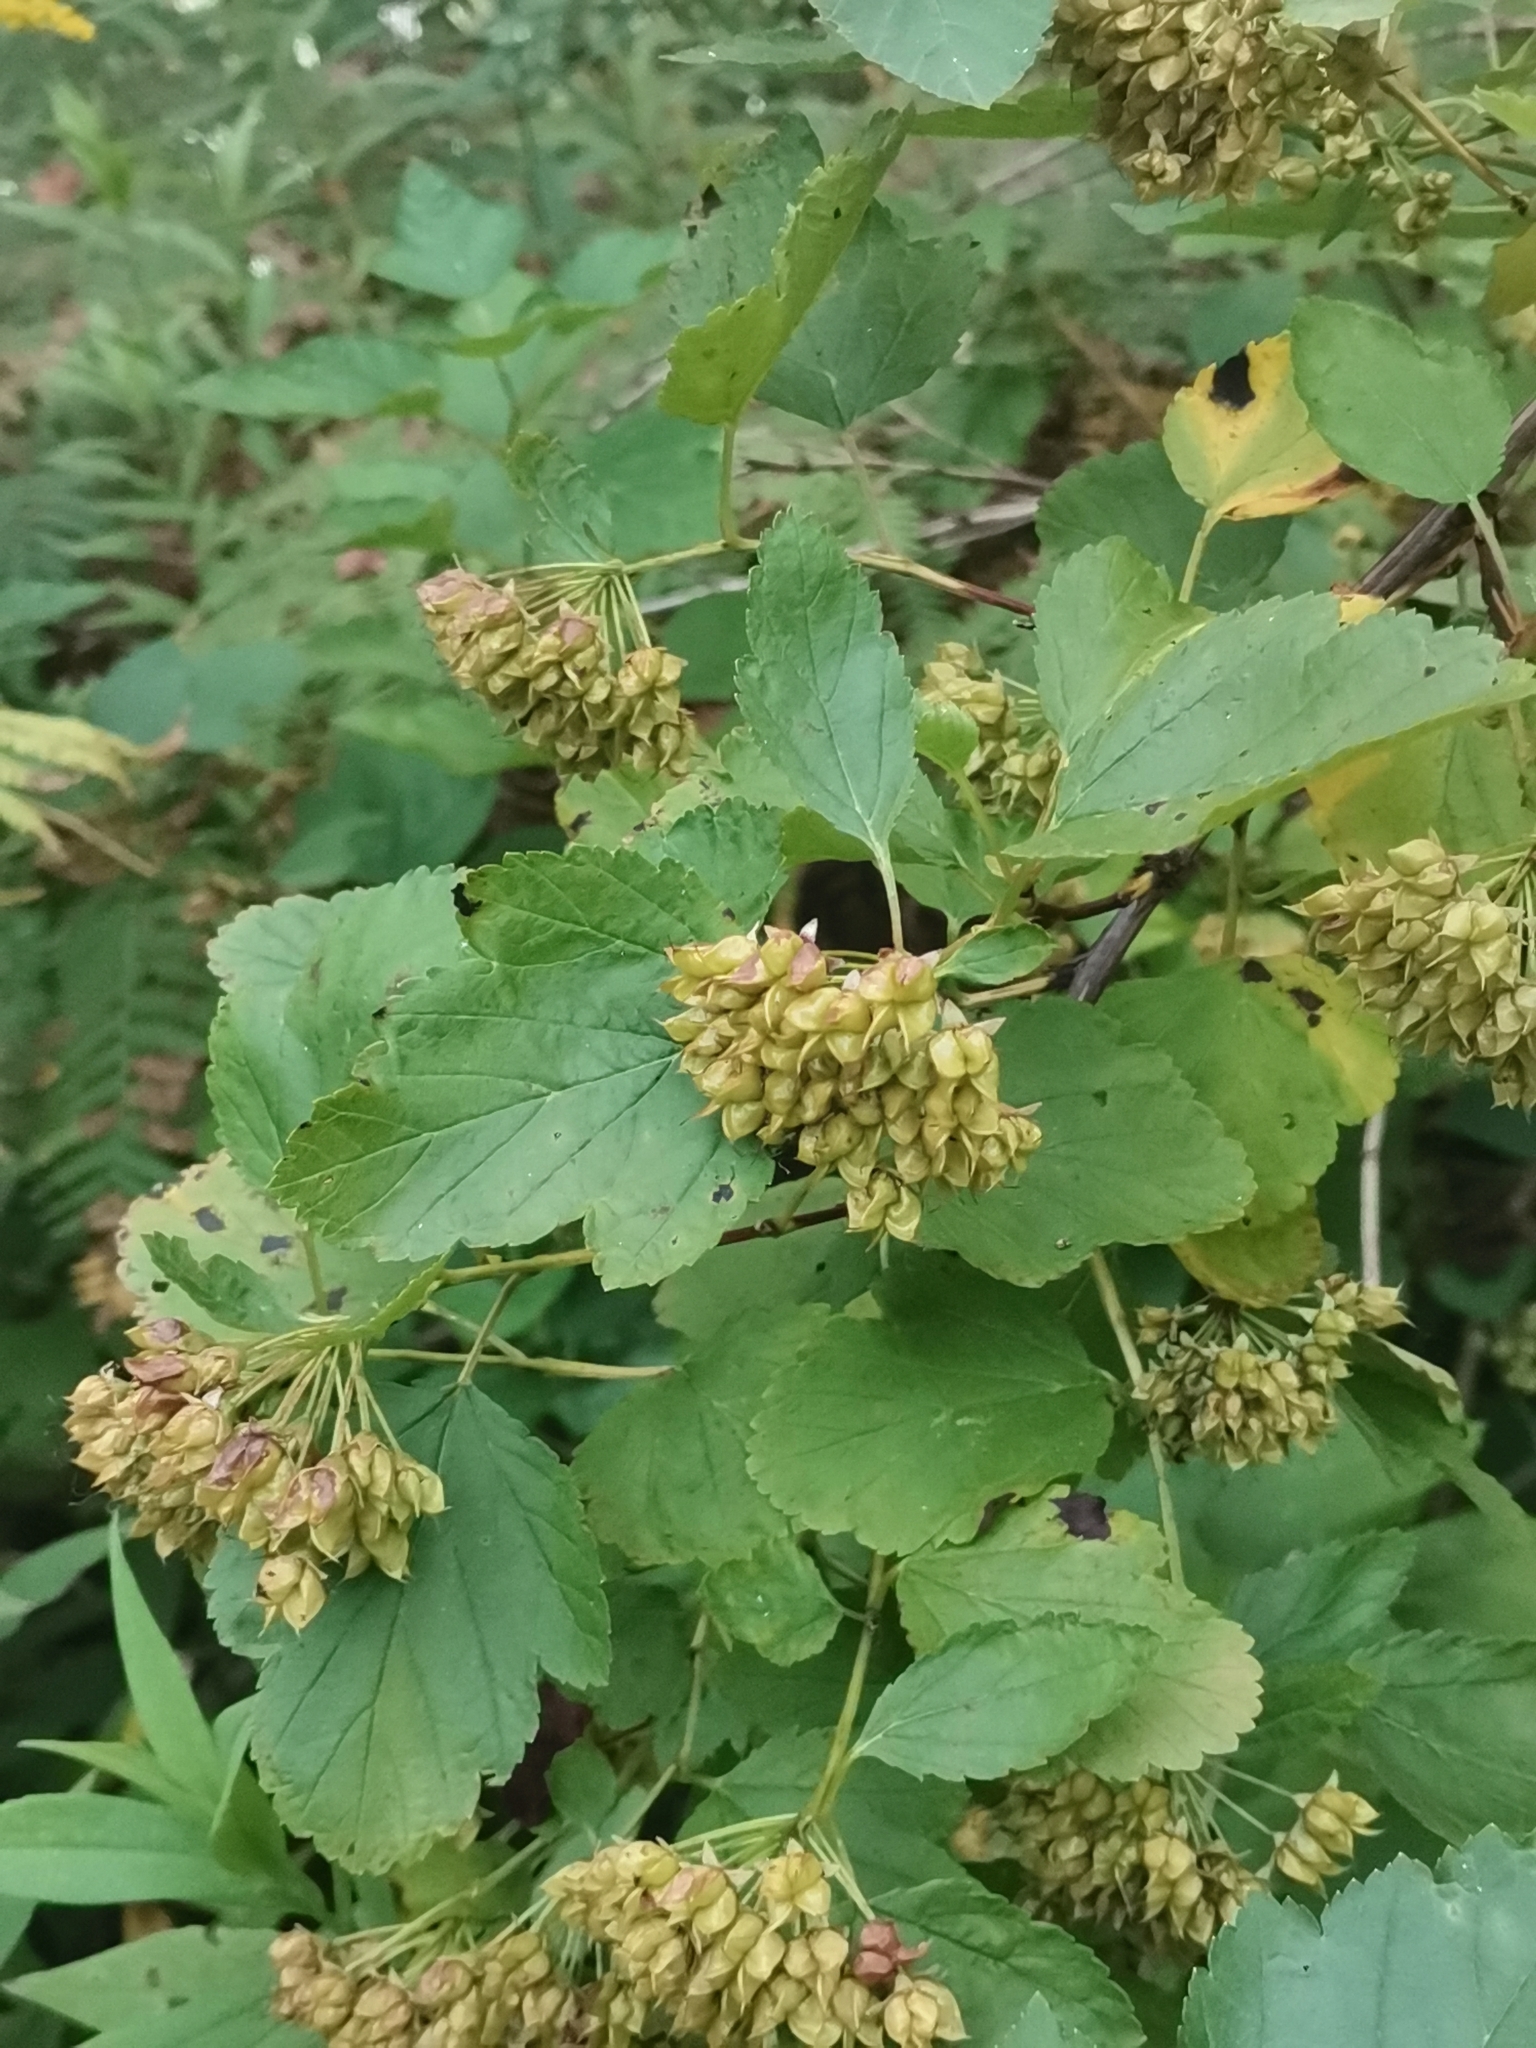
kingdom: Plantae
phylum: Tracheophyta
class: Magnoliopsida
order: Rosales
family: Rosaceae
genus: Physocarpus
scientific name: Physocarpus opulifolius
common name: Ninebark
